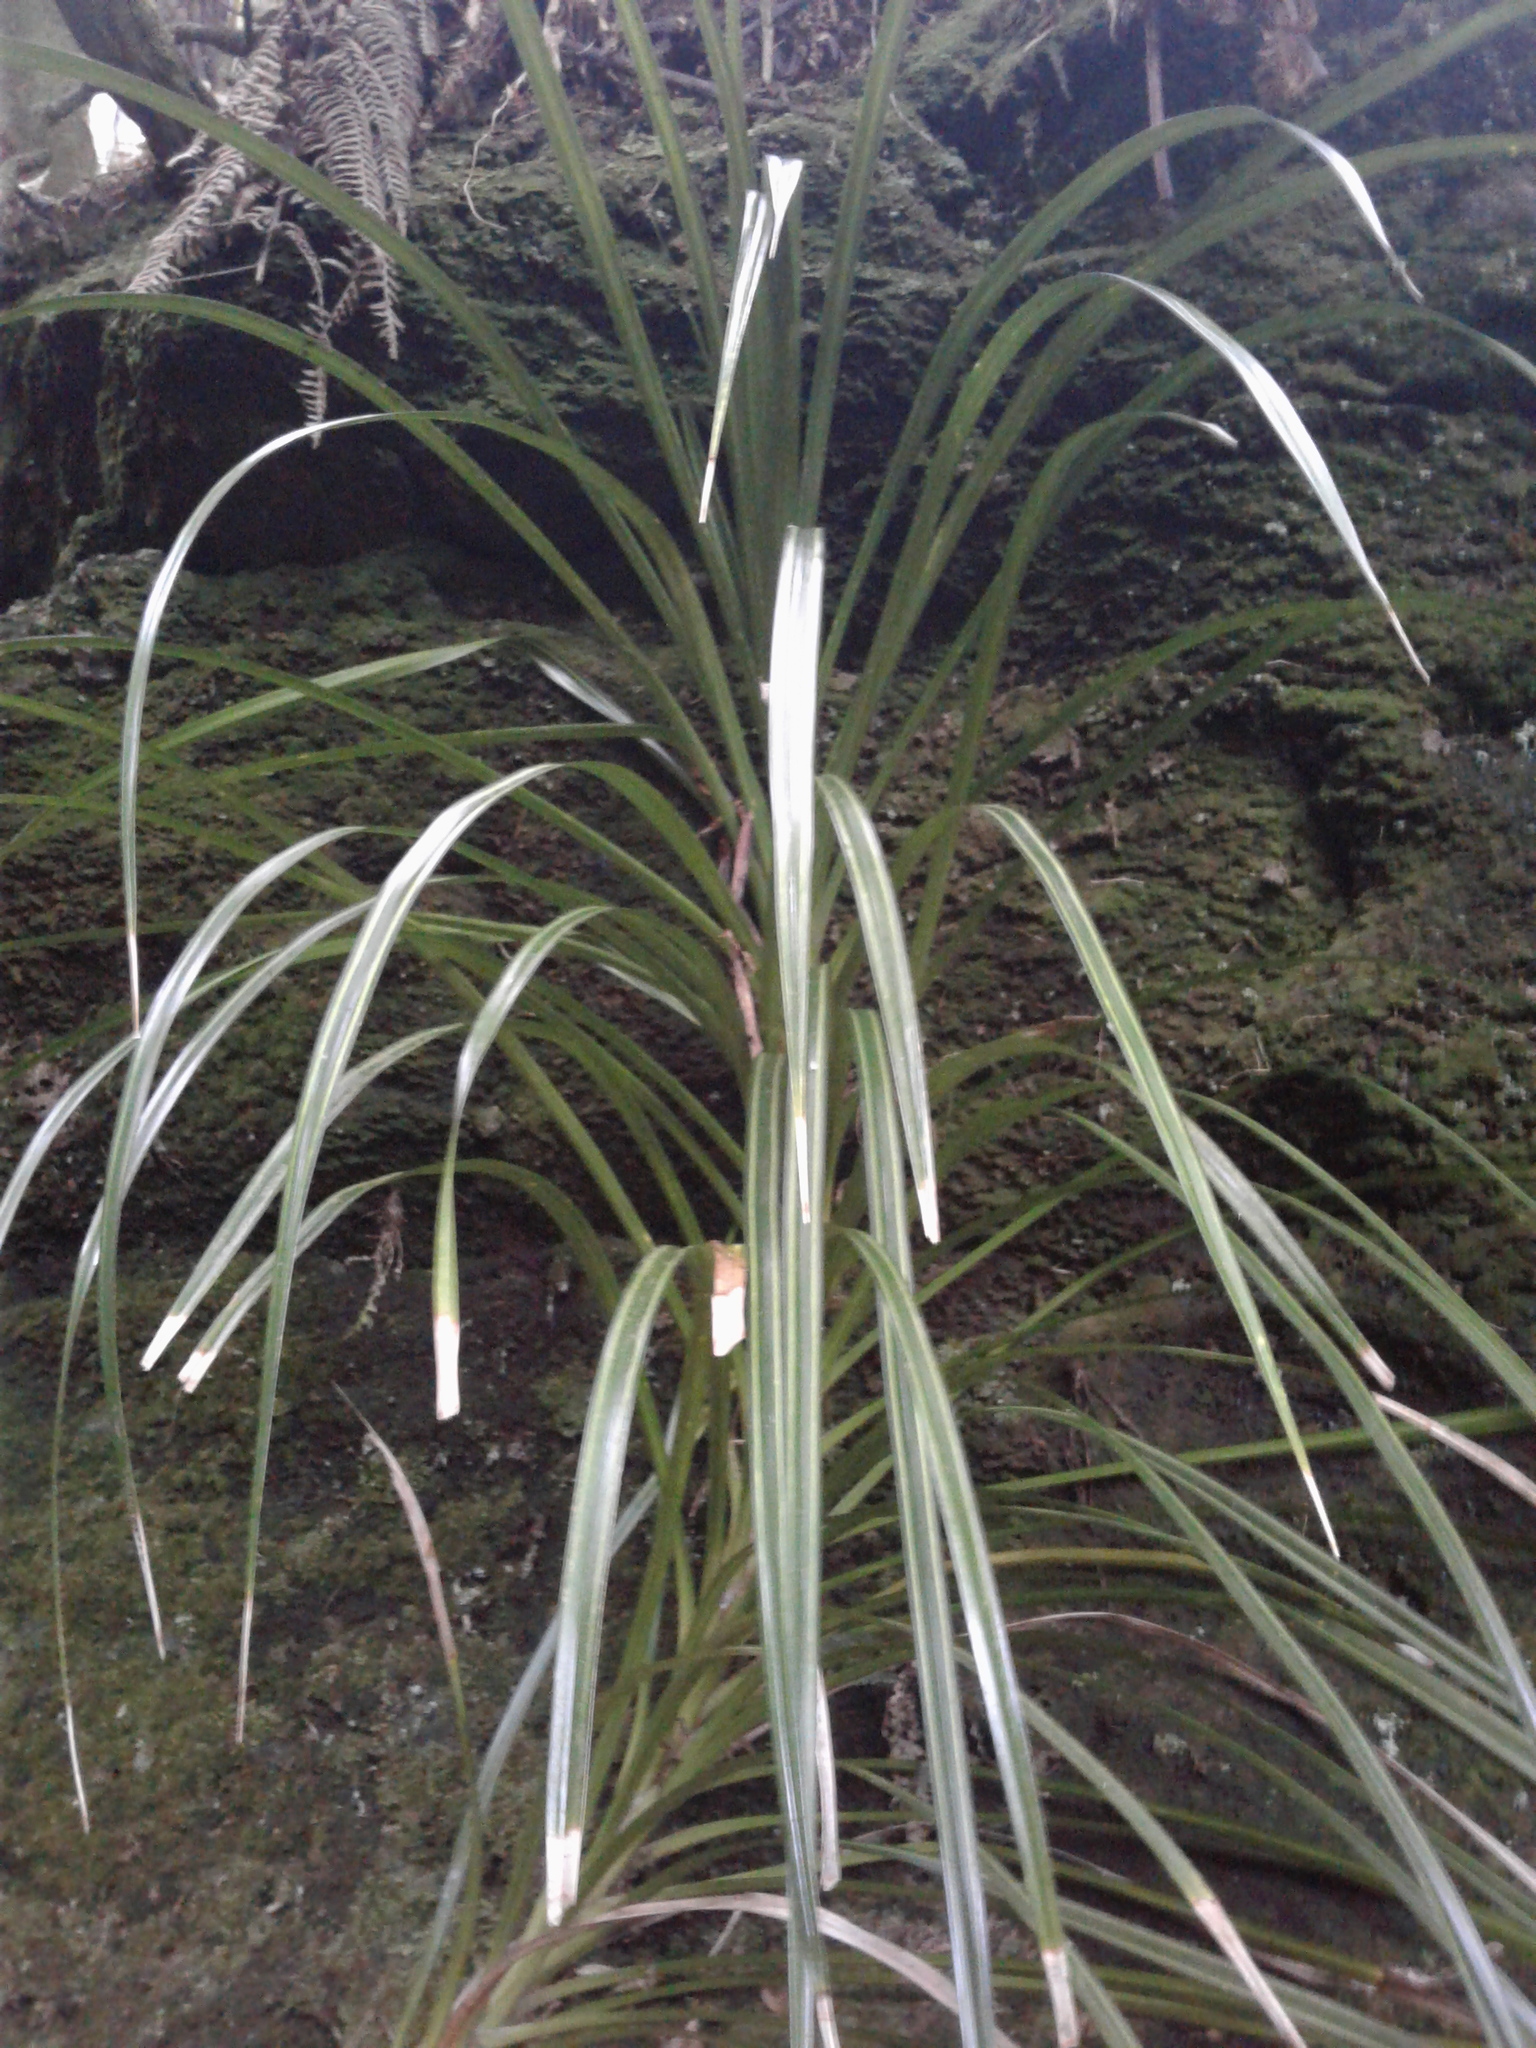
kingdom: Plantae
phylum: Tracheophyta
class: Liliopsida
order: Pandanales
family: Pandanaceae
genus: Freycinetia
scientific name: Freycinetia banksii
